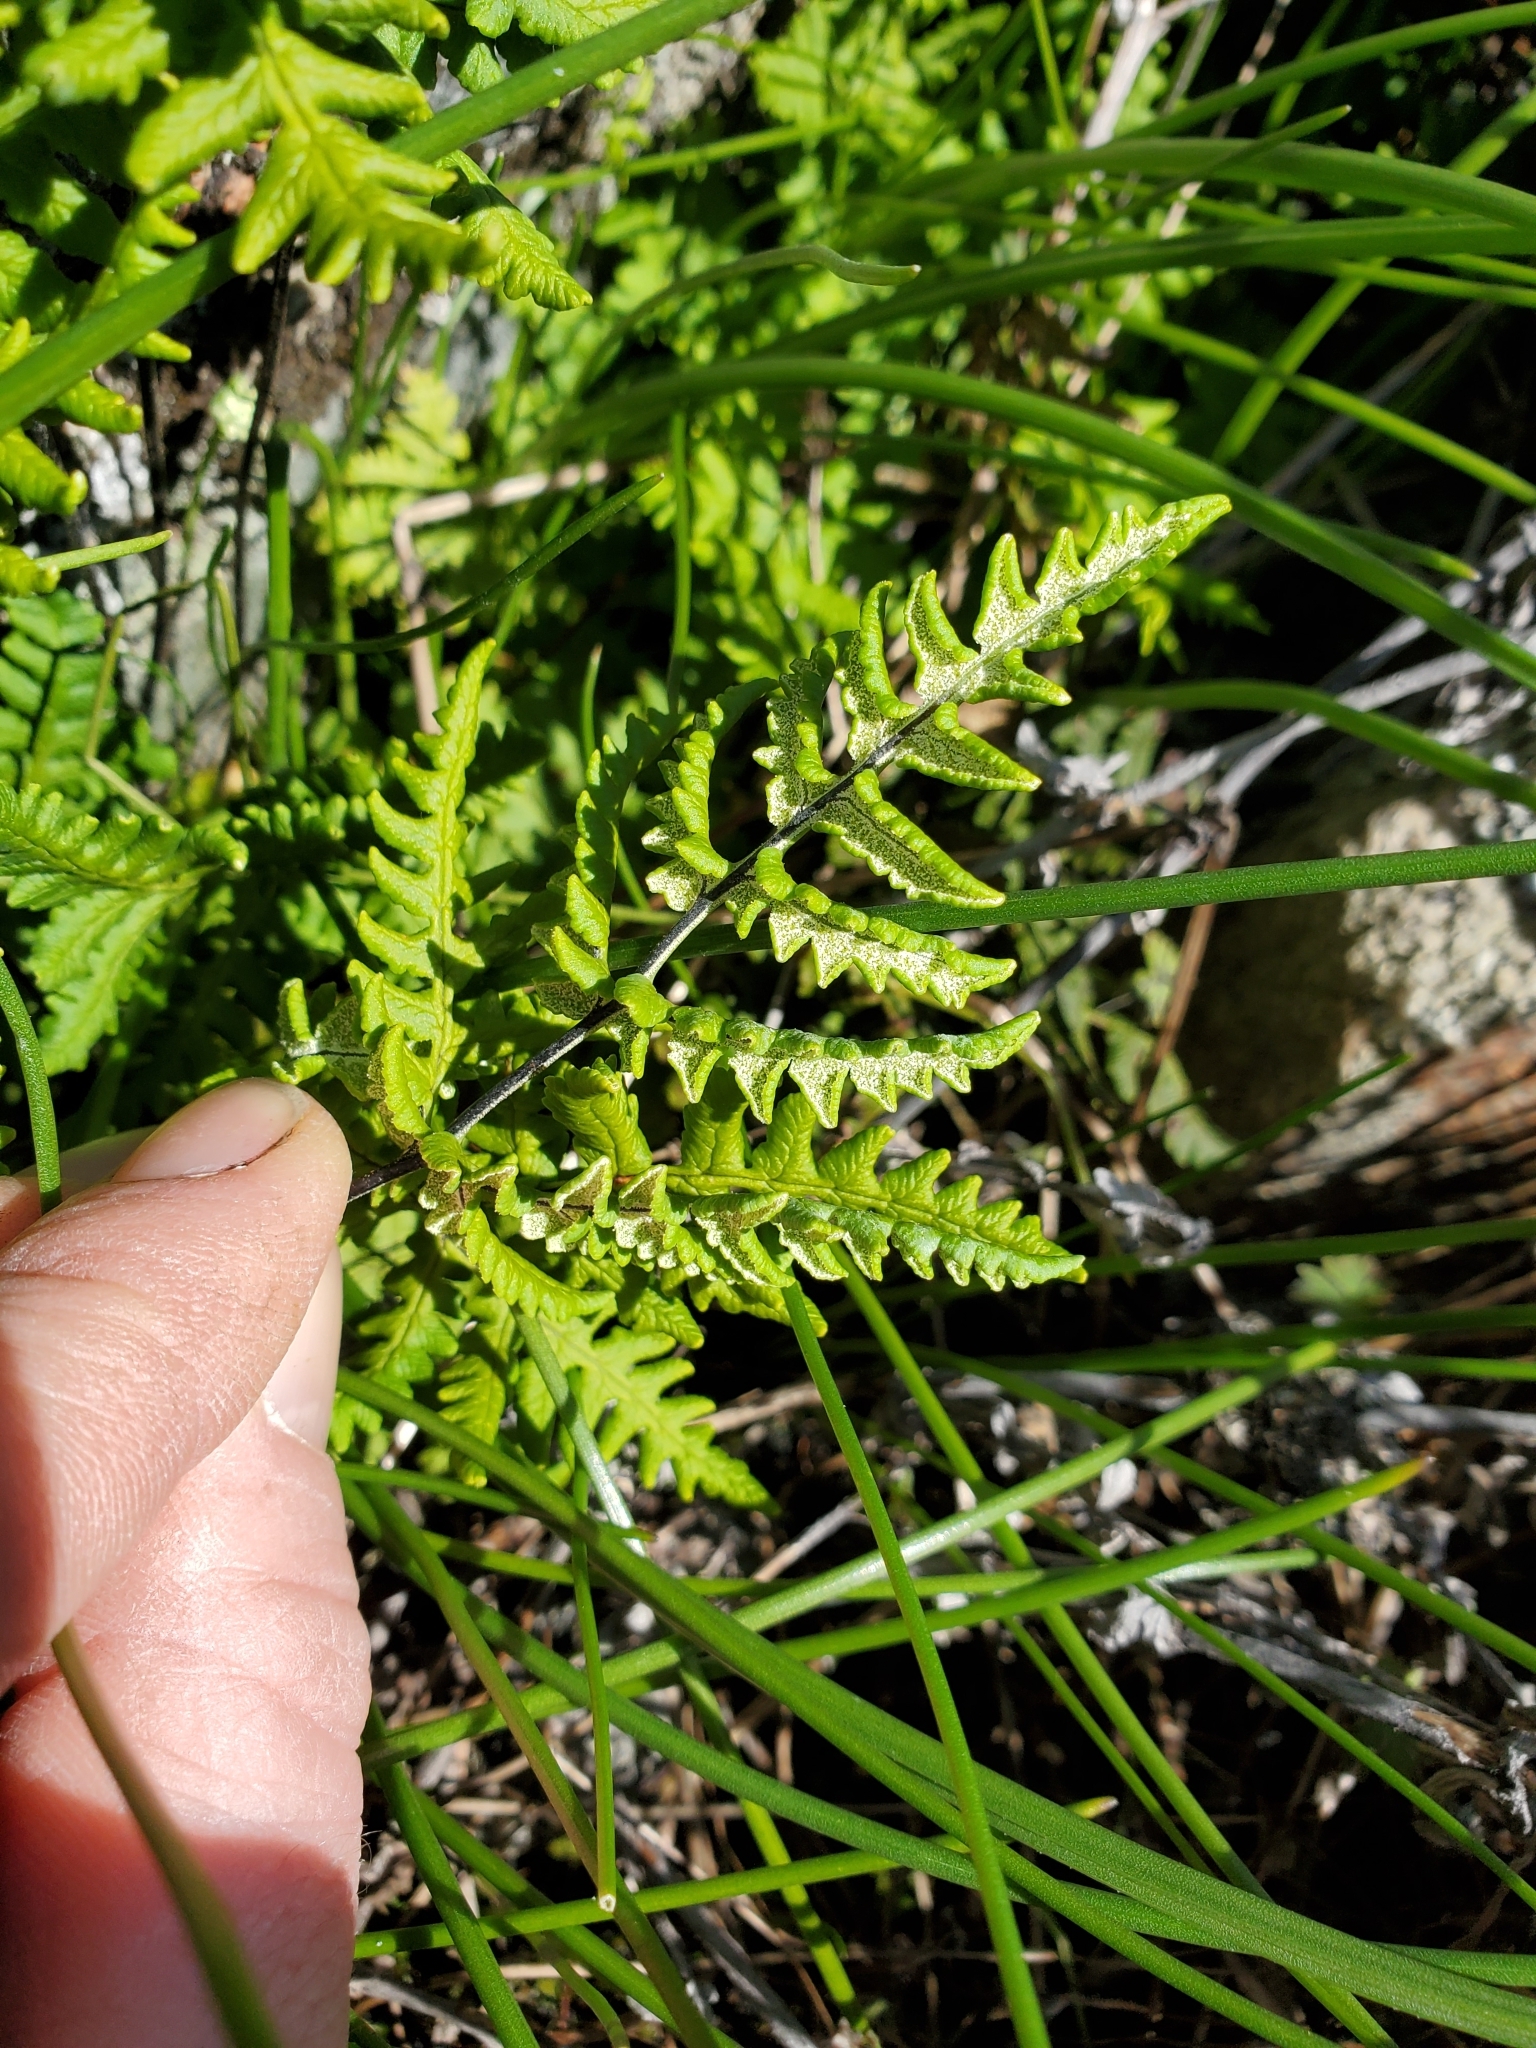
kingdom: Plantae
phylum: Tracheophyta
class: Polypodiopsida
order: Polypodiales
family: Pteridaceae
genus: Pentagramma
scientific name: Pentagramma triangularis
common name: Gold fern
